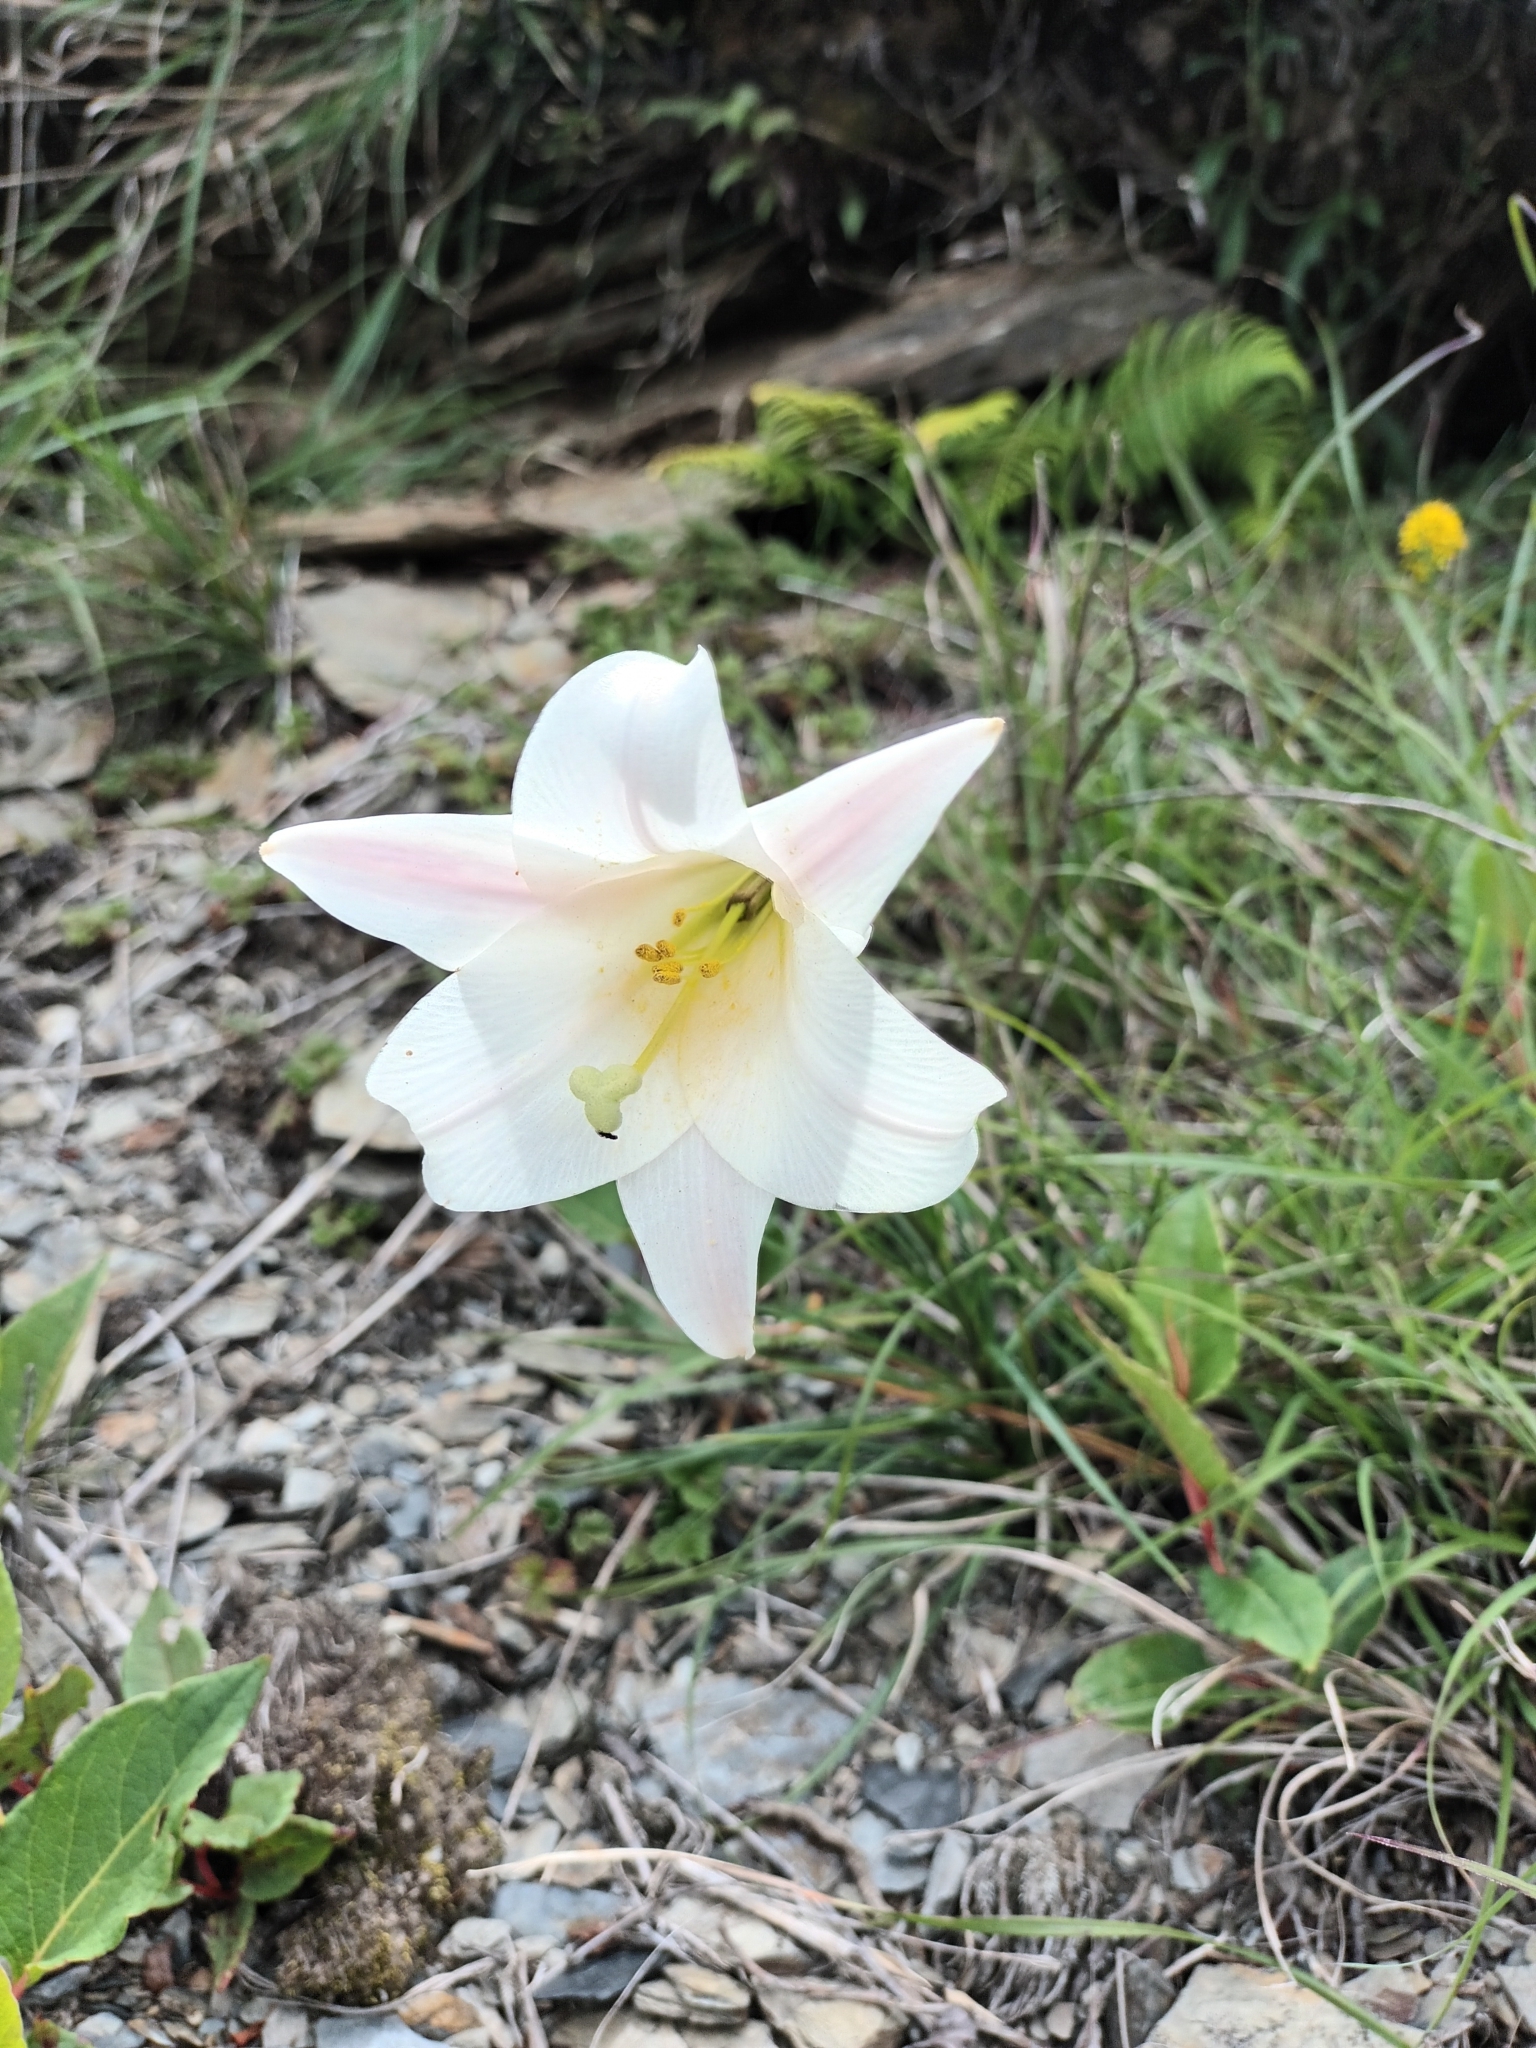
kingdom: Plantae
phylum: Tracheophyta
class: Liliopsida
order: Liliales
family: Liliaceae
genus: Lilium
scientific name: Lilium formosanum
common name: Formosa lily
